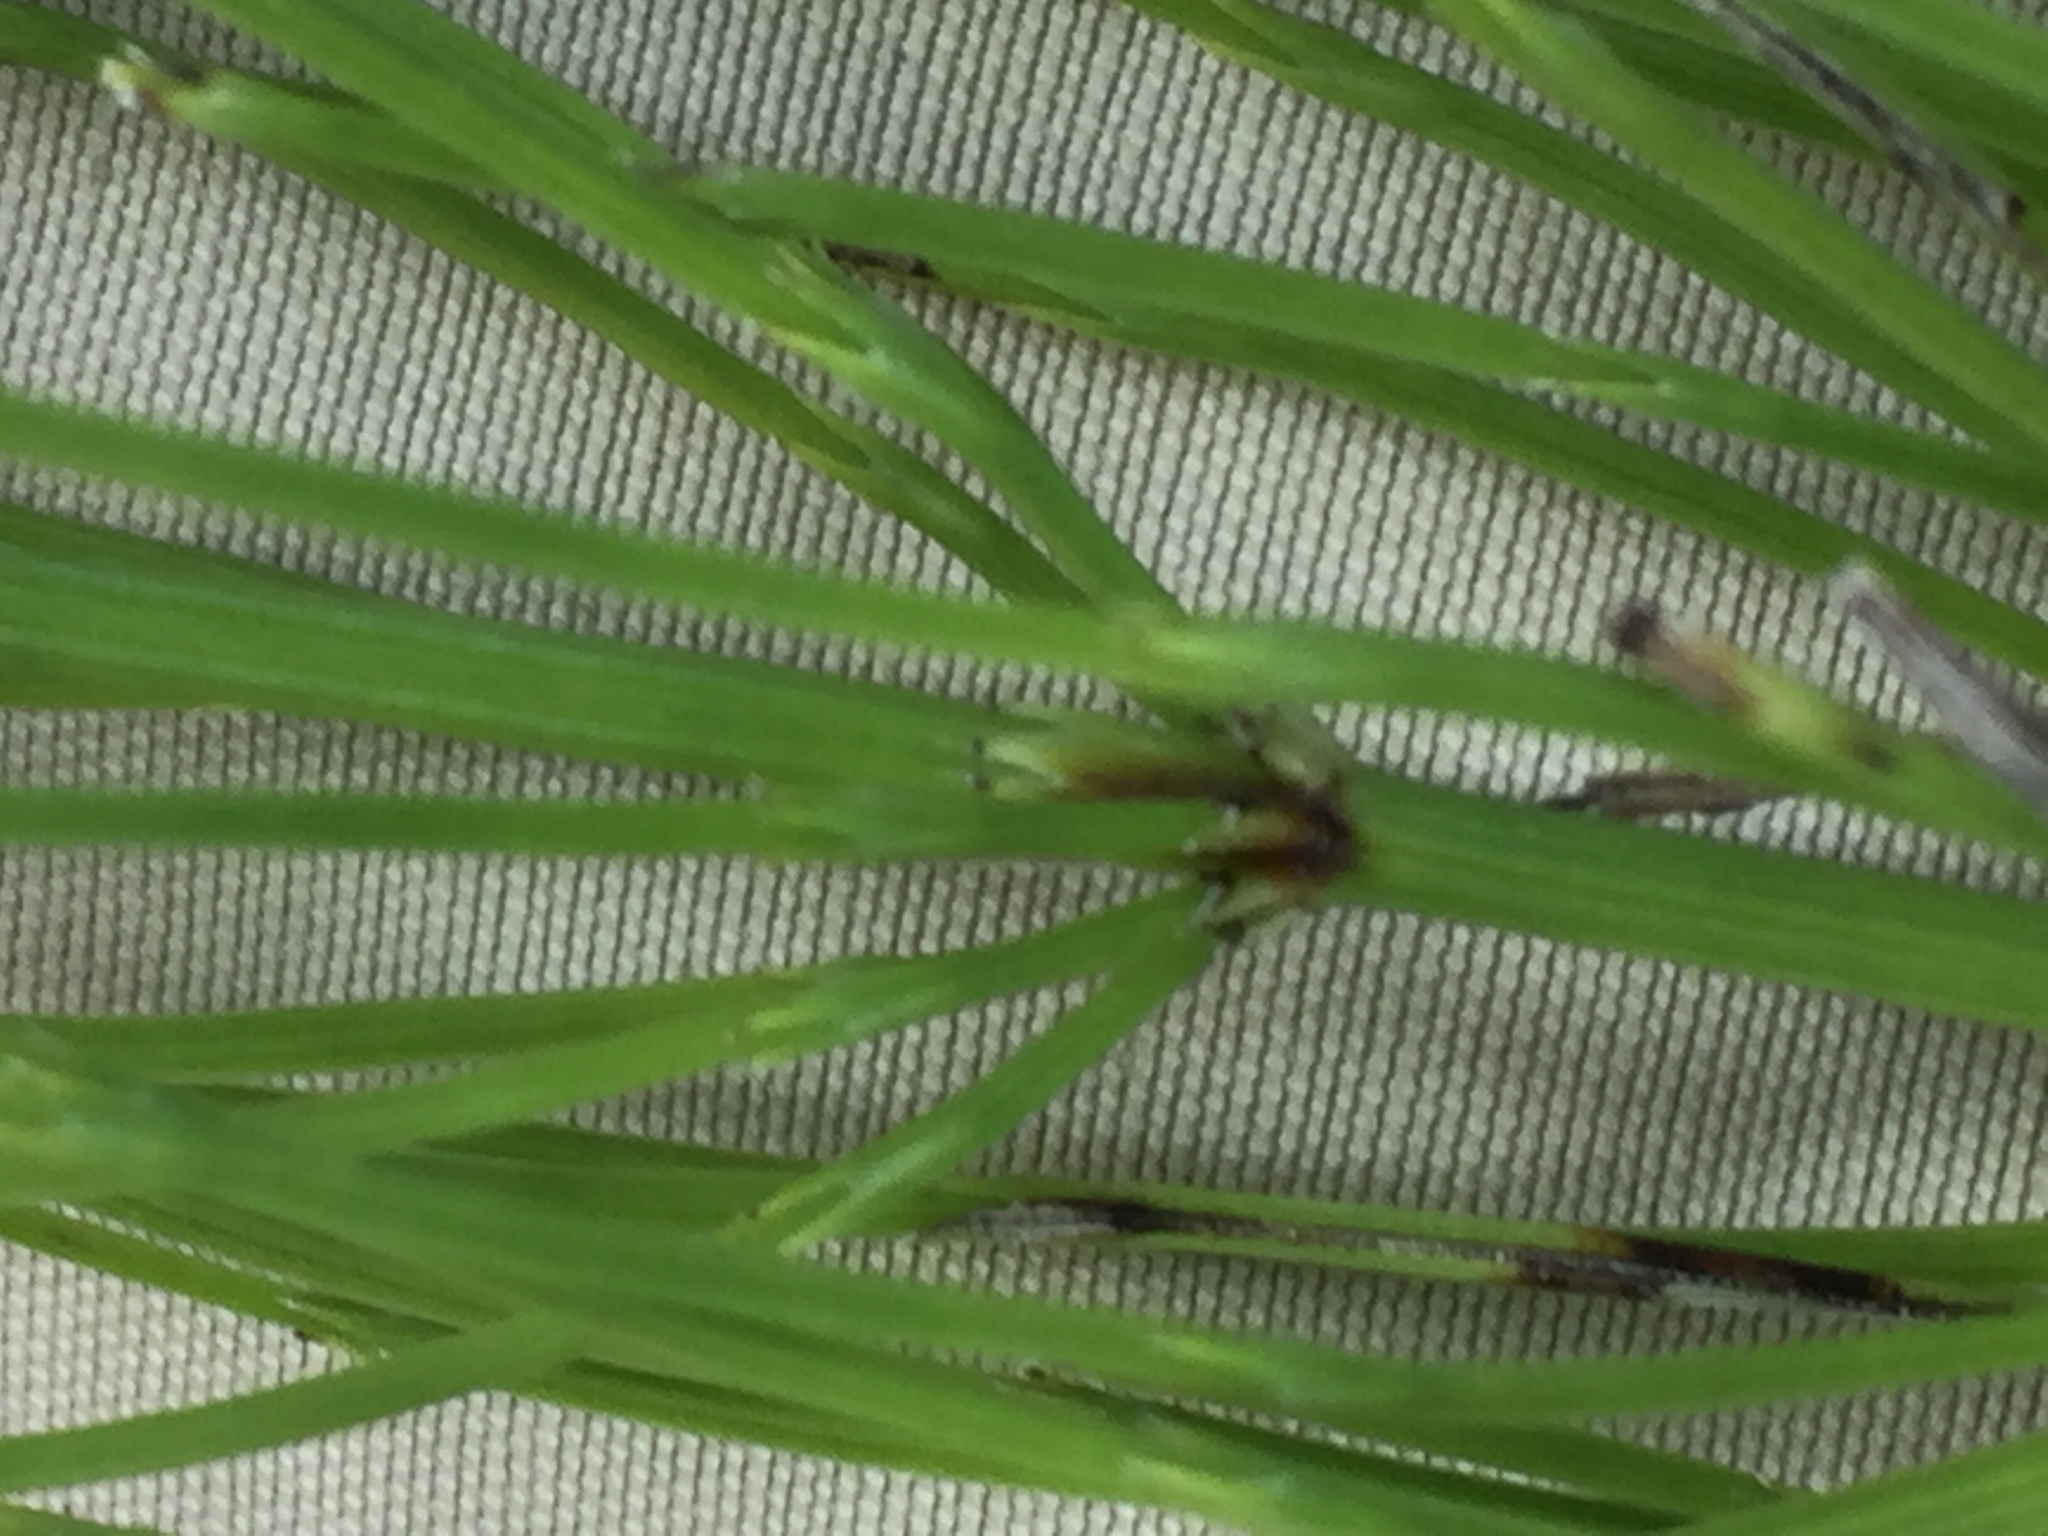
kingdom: Plantae
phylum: Tracheophyta
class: Polypodiopsida
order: Equisetales
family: Equisetaceae
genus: Equisetum
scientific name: Equisetum arvense
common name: Field horsetail
